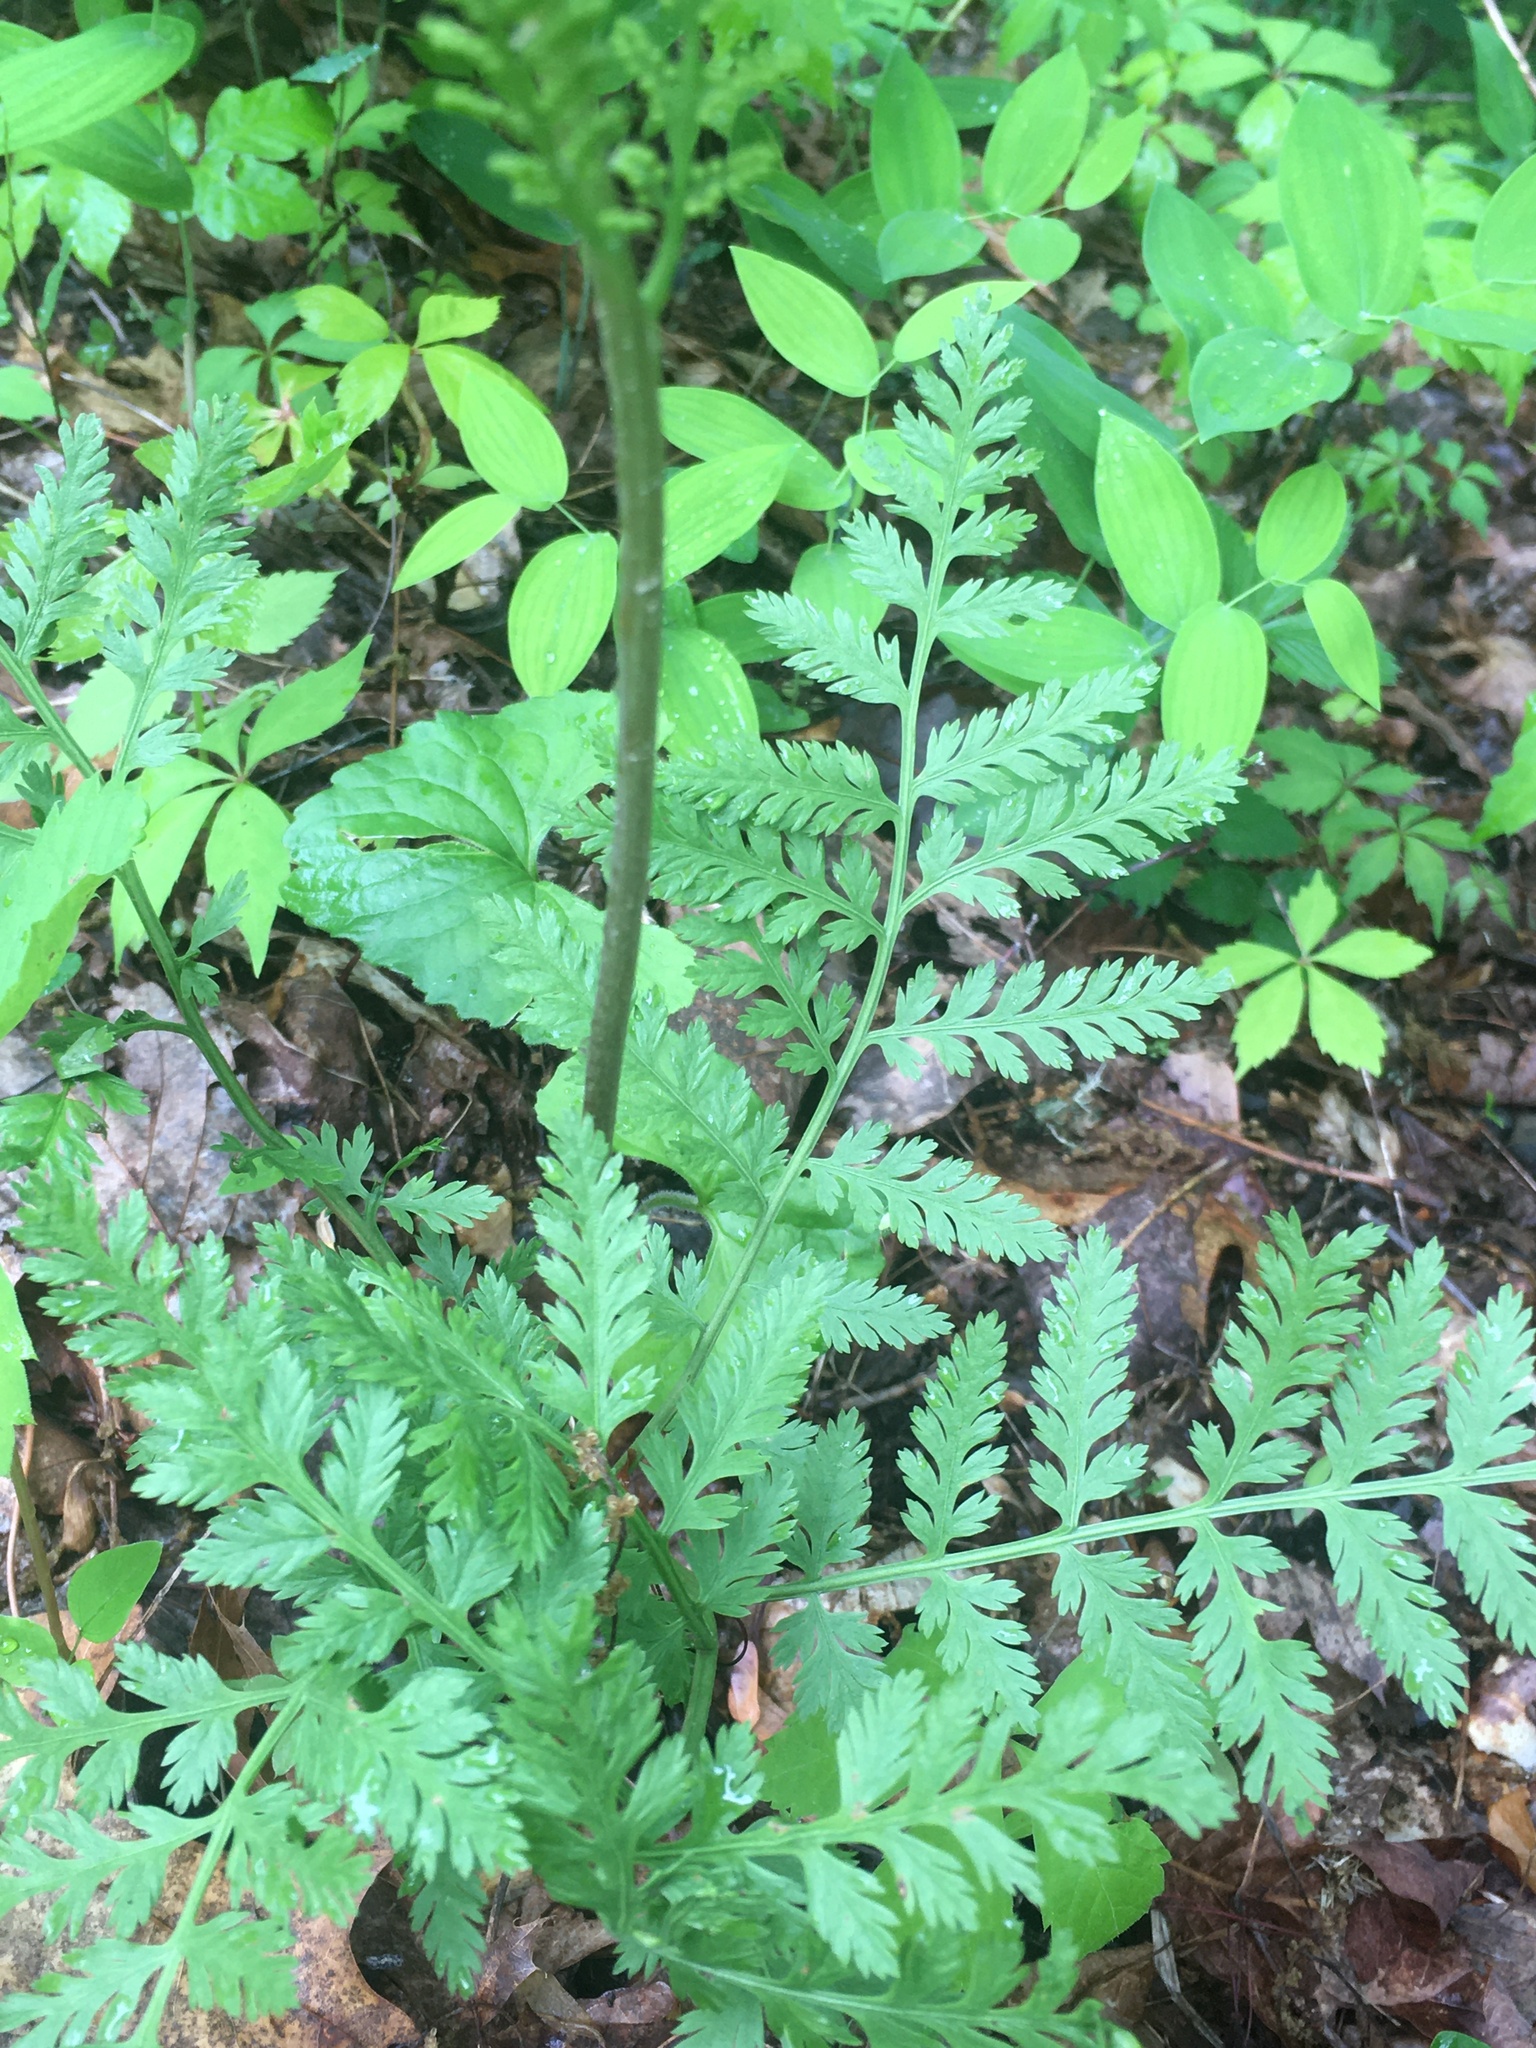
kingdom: Plantae
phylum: Tracheophyta
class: Polypodiopsida
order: Ophioglossales
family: Ophioglossaceae
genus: Botrypus
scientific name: Botrypus virginianus
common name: Common grapefern
